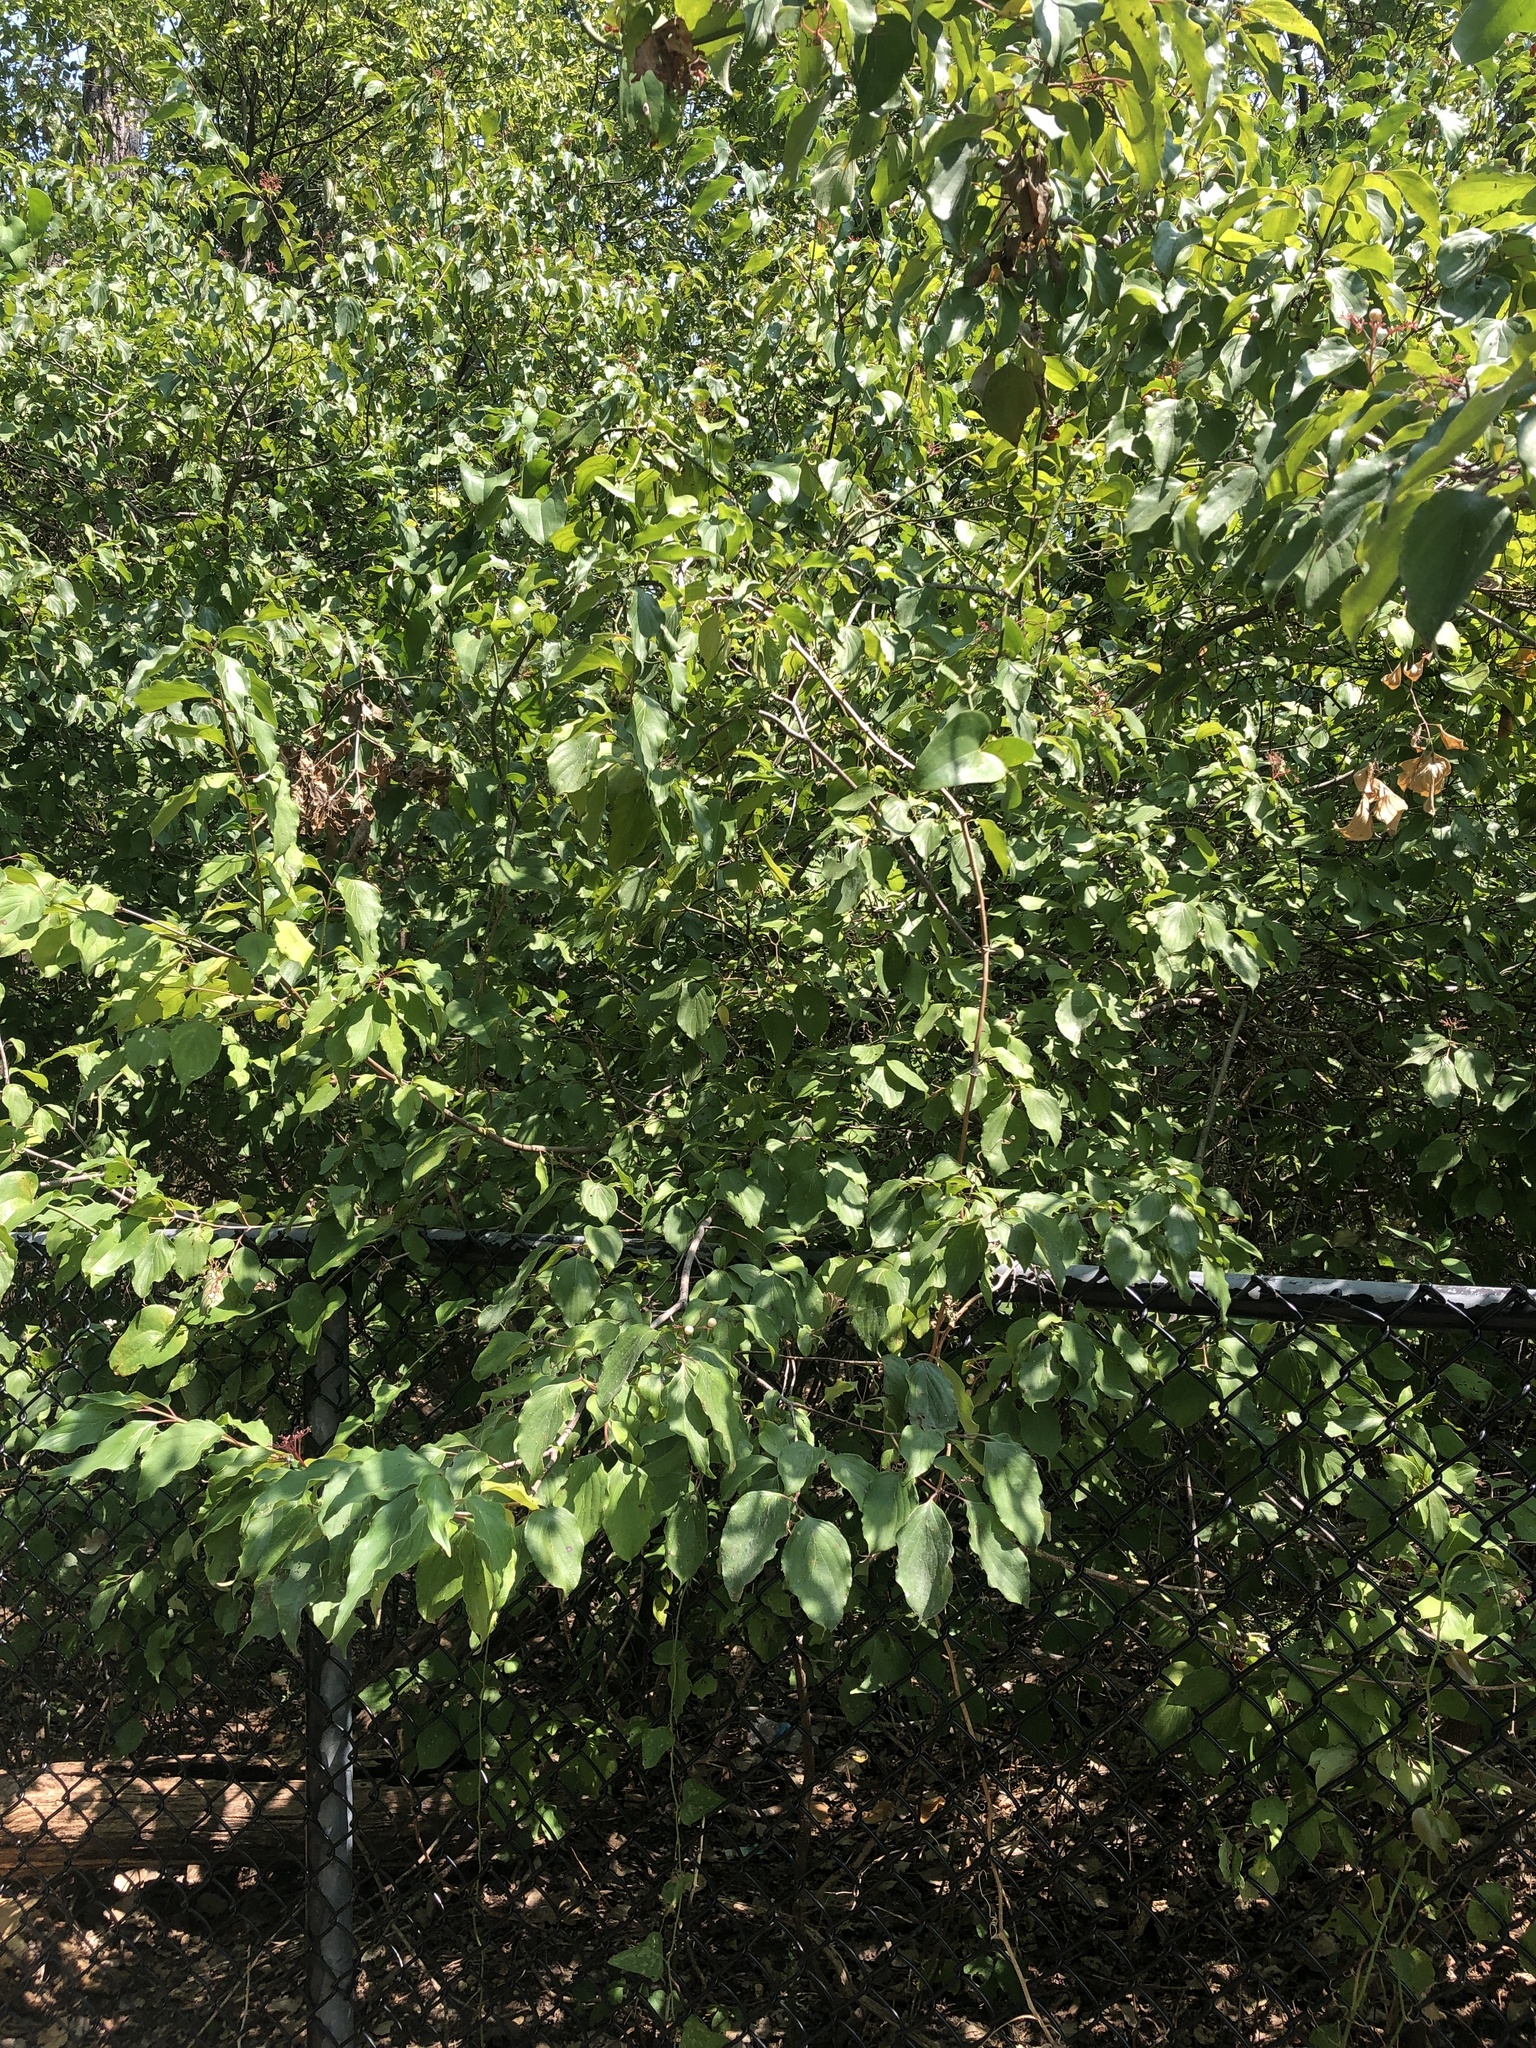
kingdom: Plantae
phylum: Tracheophyta
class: Magnoliopsida
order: Cornales
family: Cornaceae
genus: Cornus
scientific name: Cornus drummondii
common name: Rough-leaf dogwood
